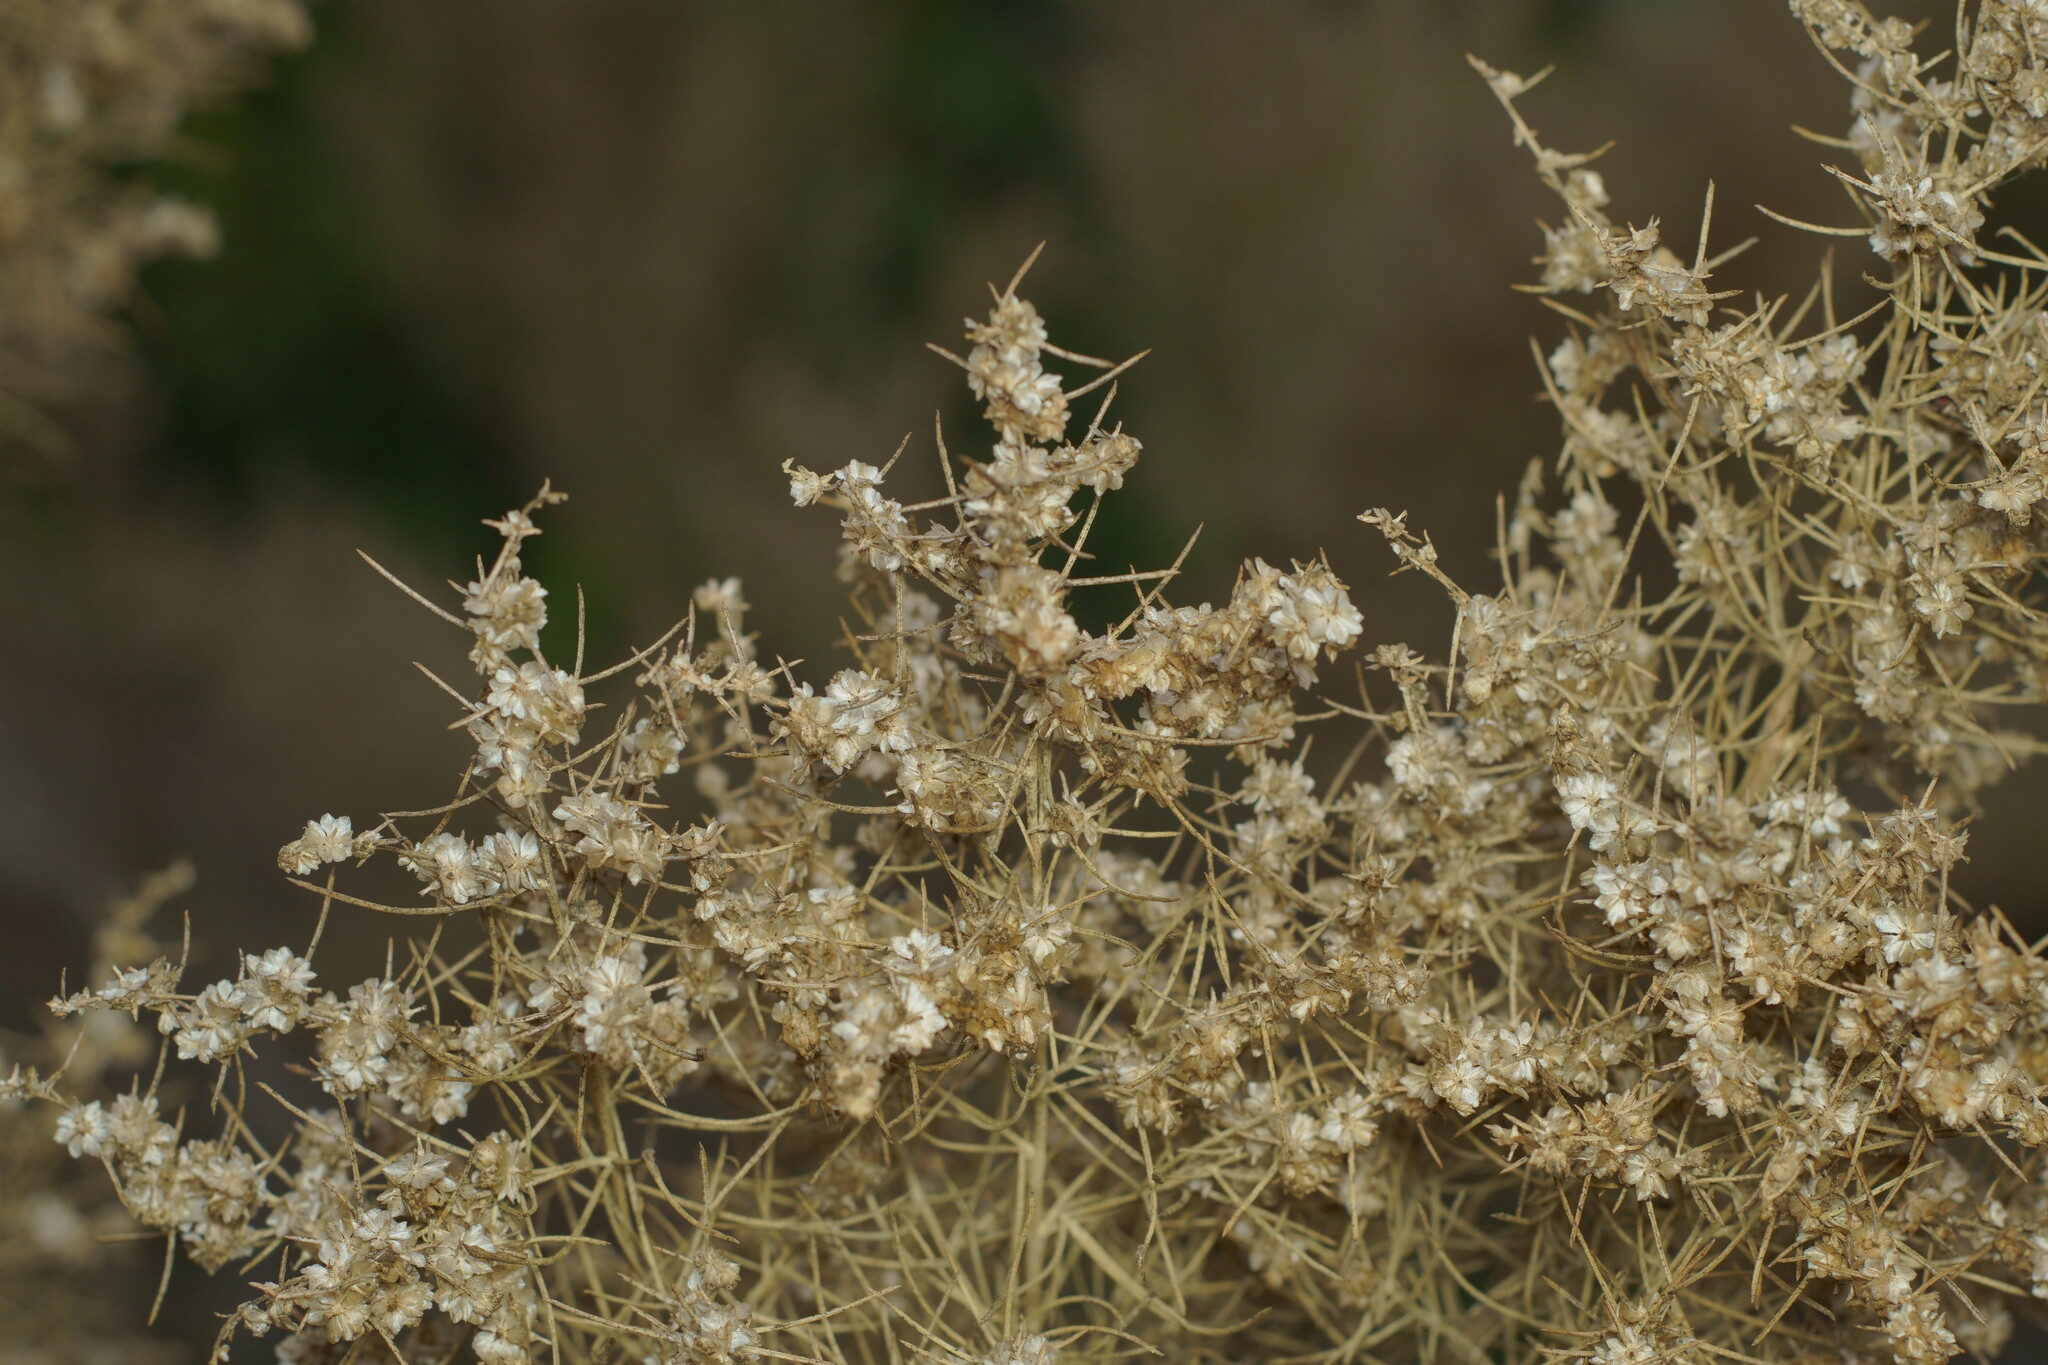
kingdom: Plantae
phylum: Tracheophyta
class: Magnoliopsida
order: Asterales
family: Asteraceae
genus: Ambrosia
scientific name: Ambrosia monogyra
